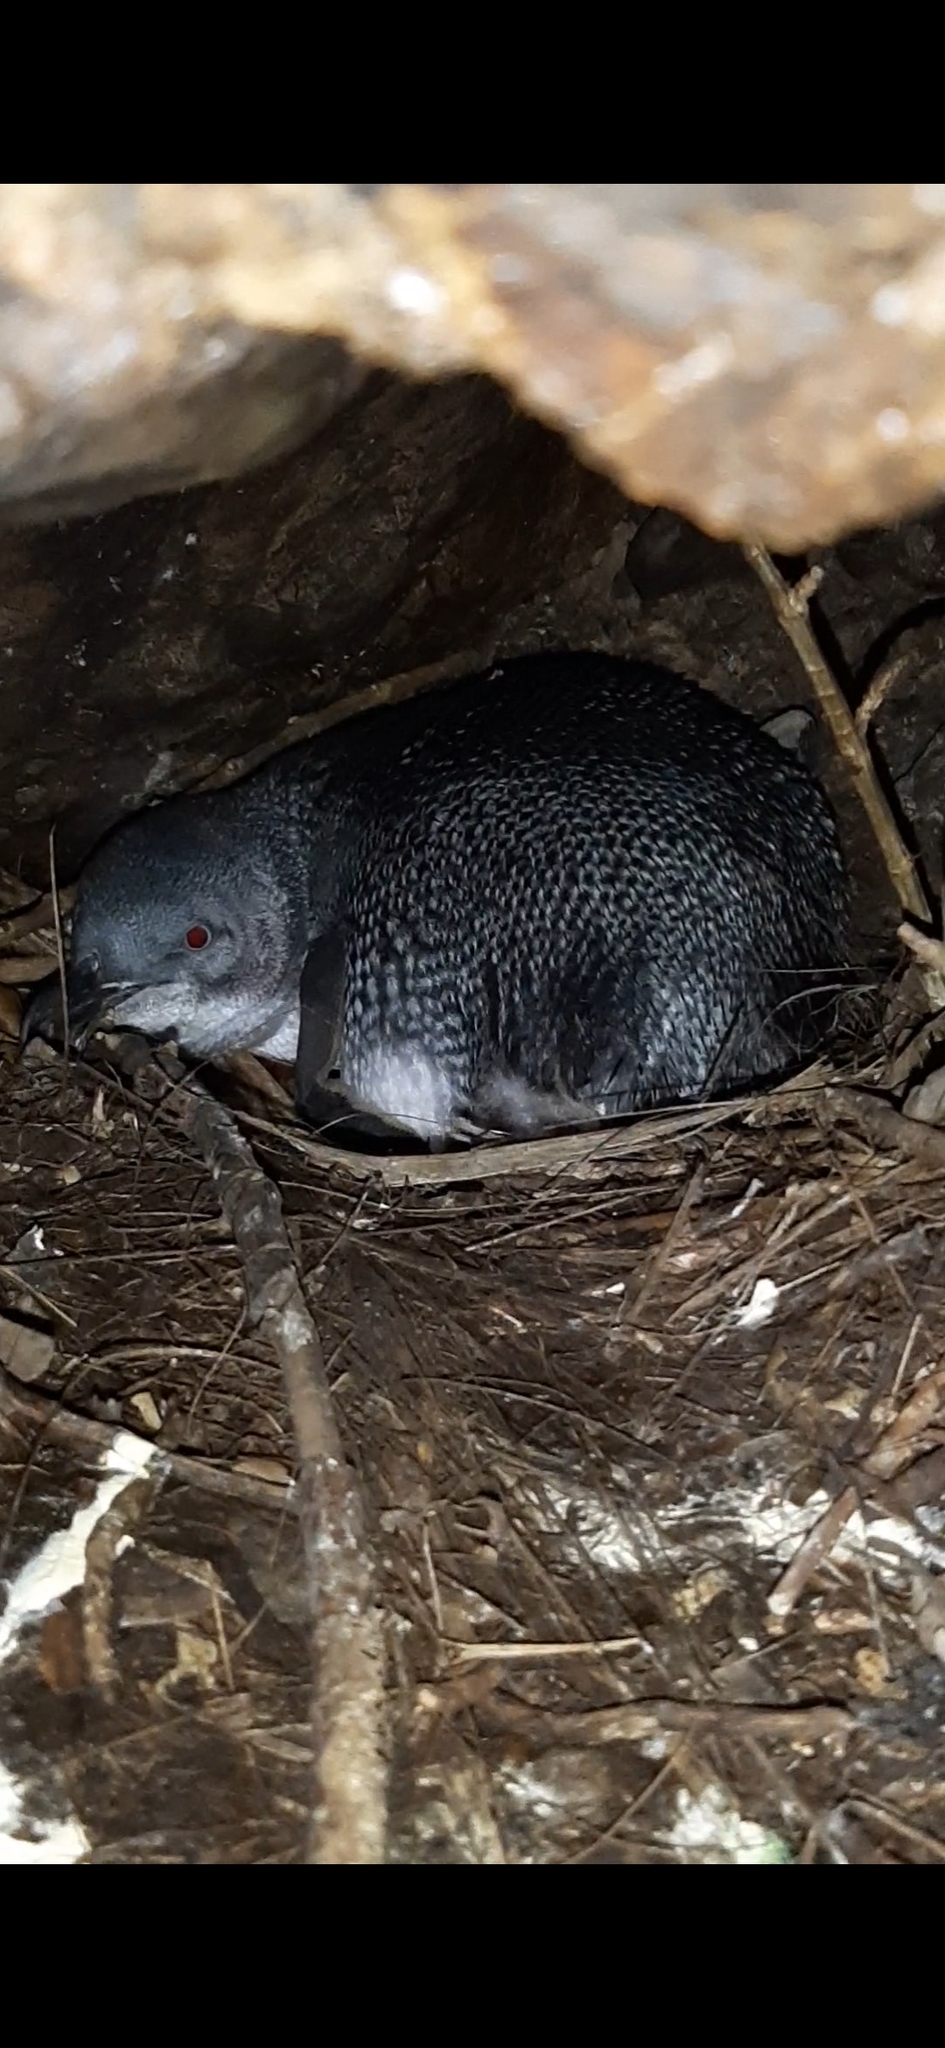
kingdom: Animalia
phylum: Chordata
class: Aves
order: Sphenisciformes
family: Spheniscidae
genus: Eudyptula
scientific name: Eudyptula minor
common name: Little penguin
